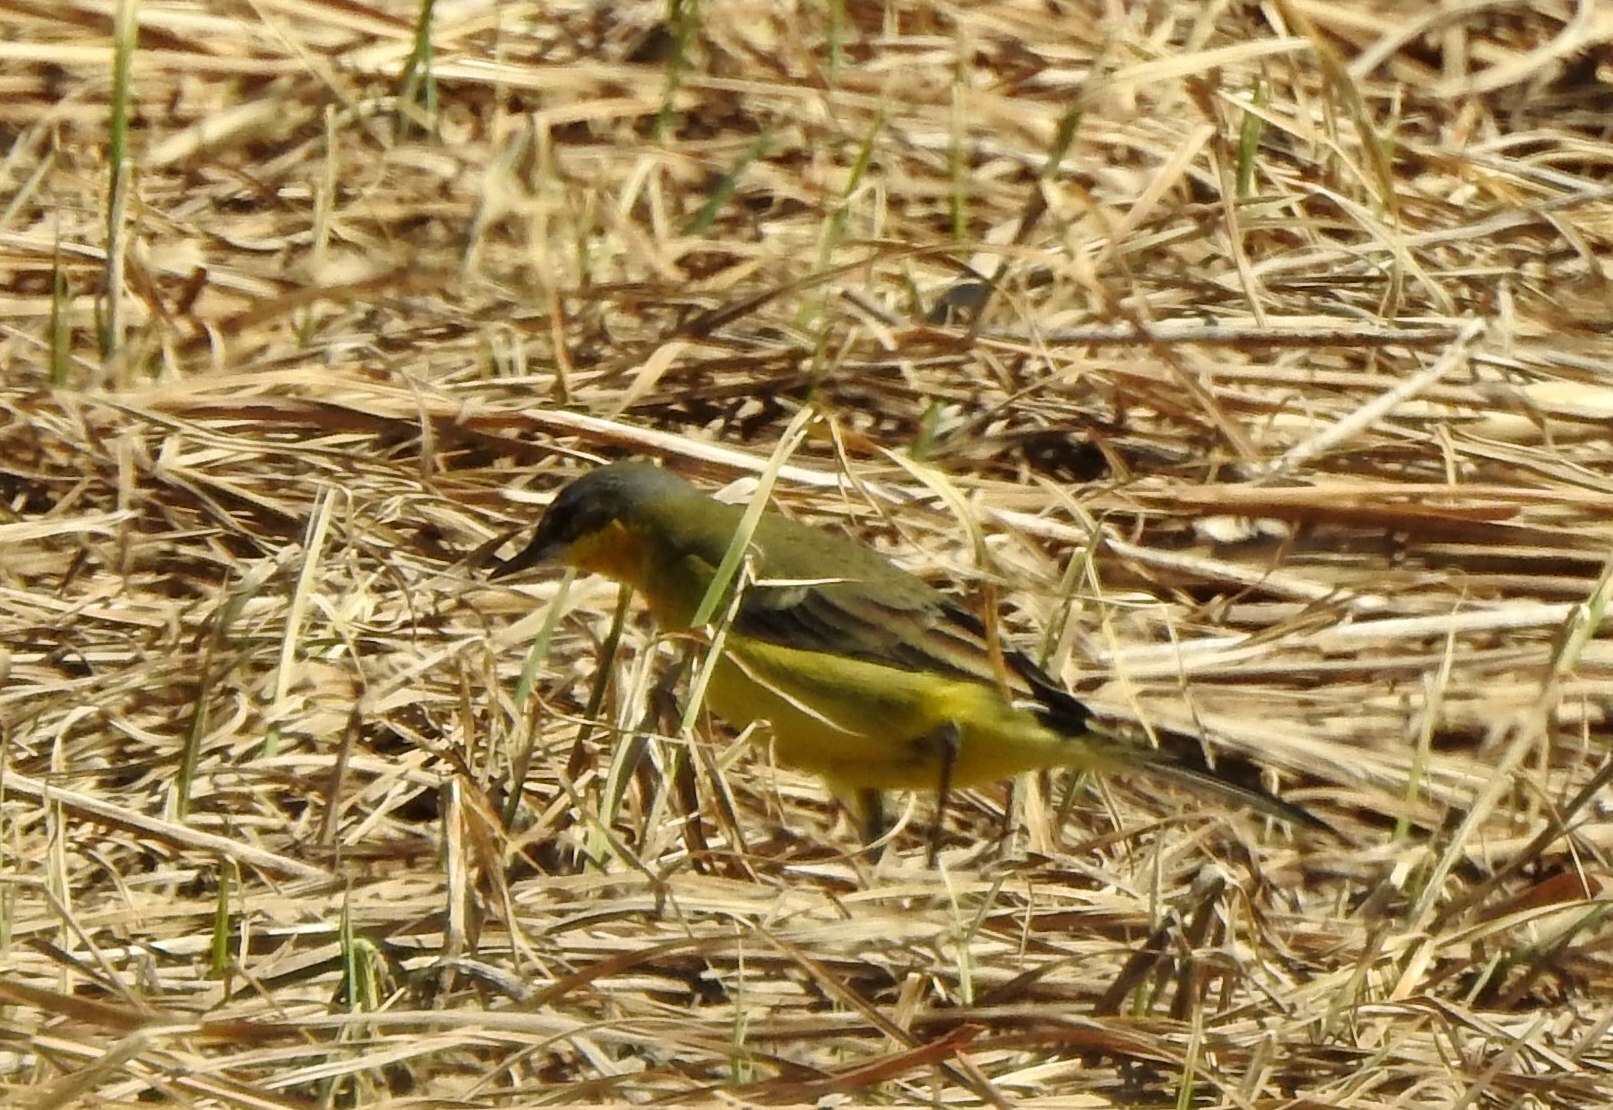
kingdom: Animalia
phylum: Chordata
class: Aves
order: Passeriformes
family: Motacillidae
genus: Motacilla
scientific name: Motacilla tschutschensis
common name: Eastern yellow wagtail
